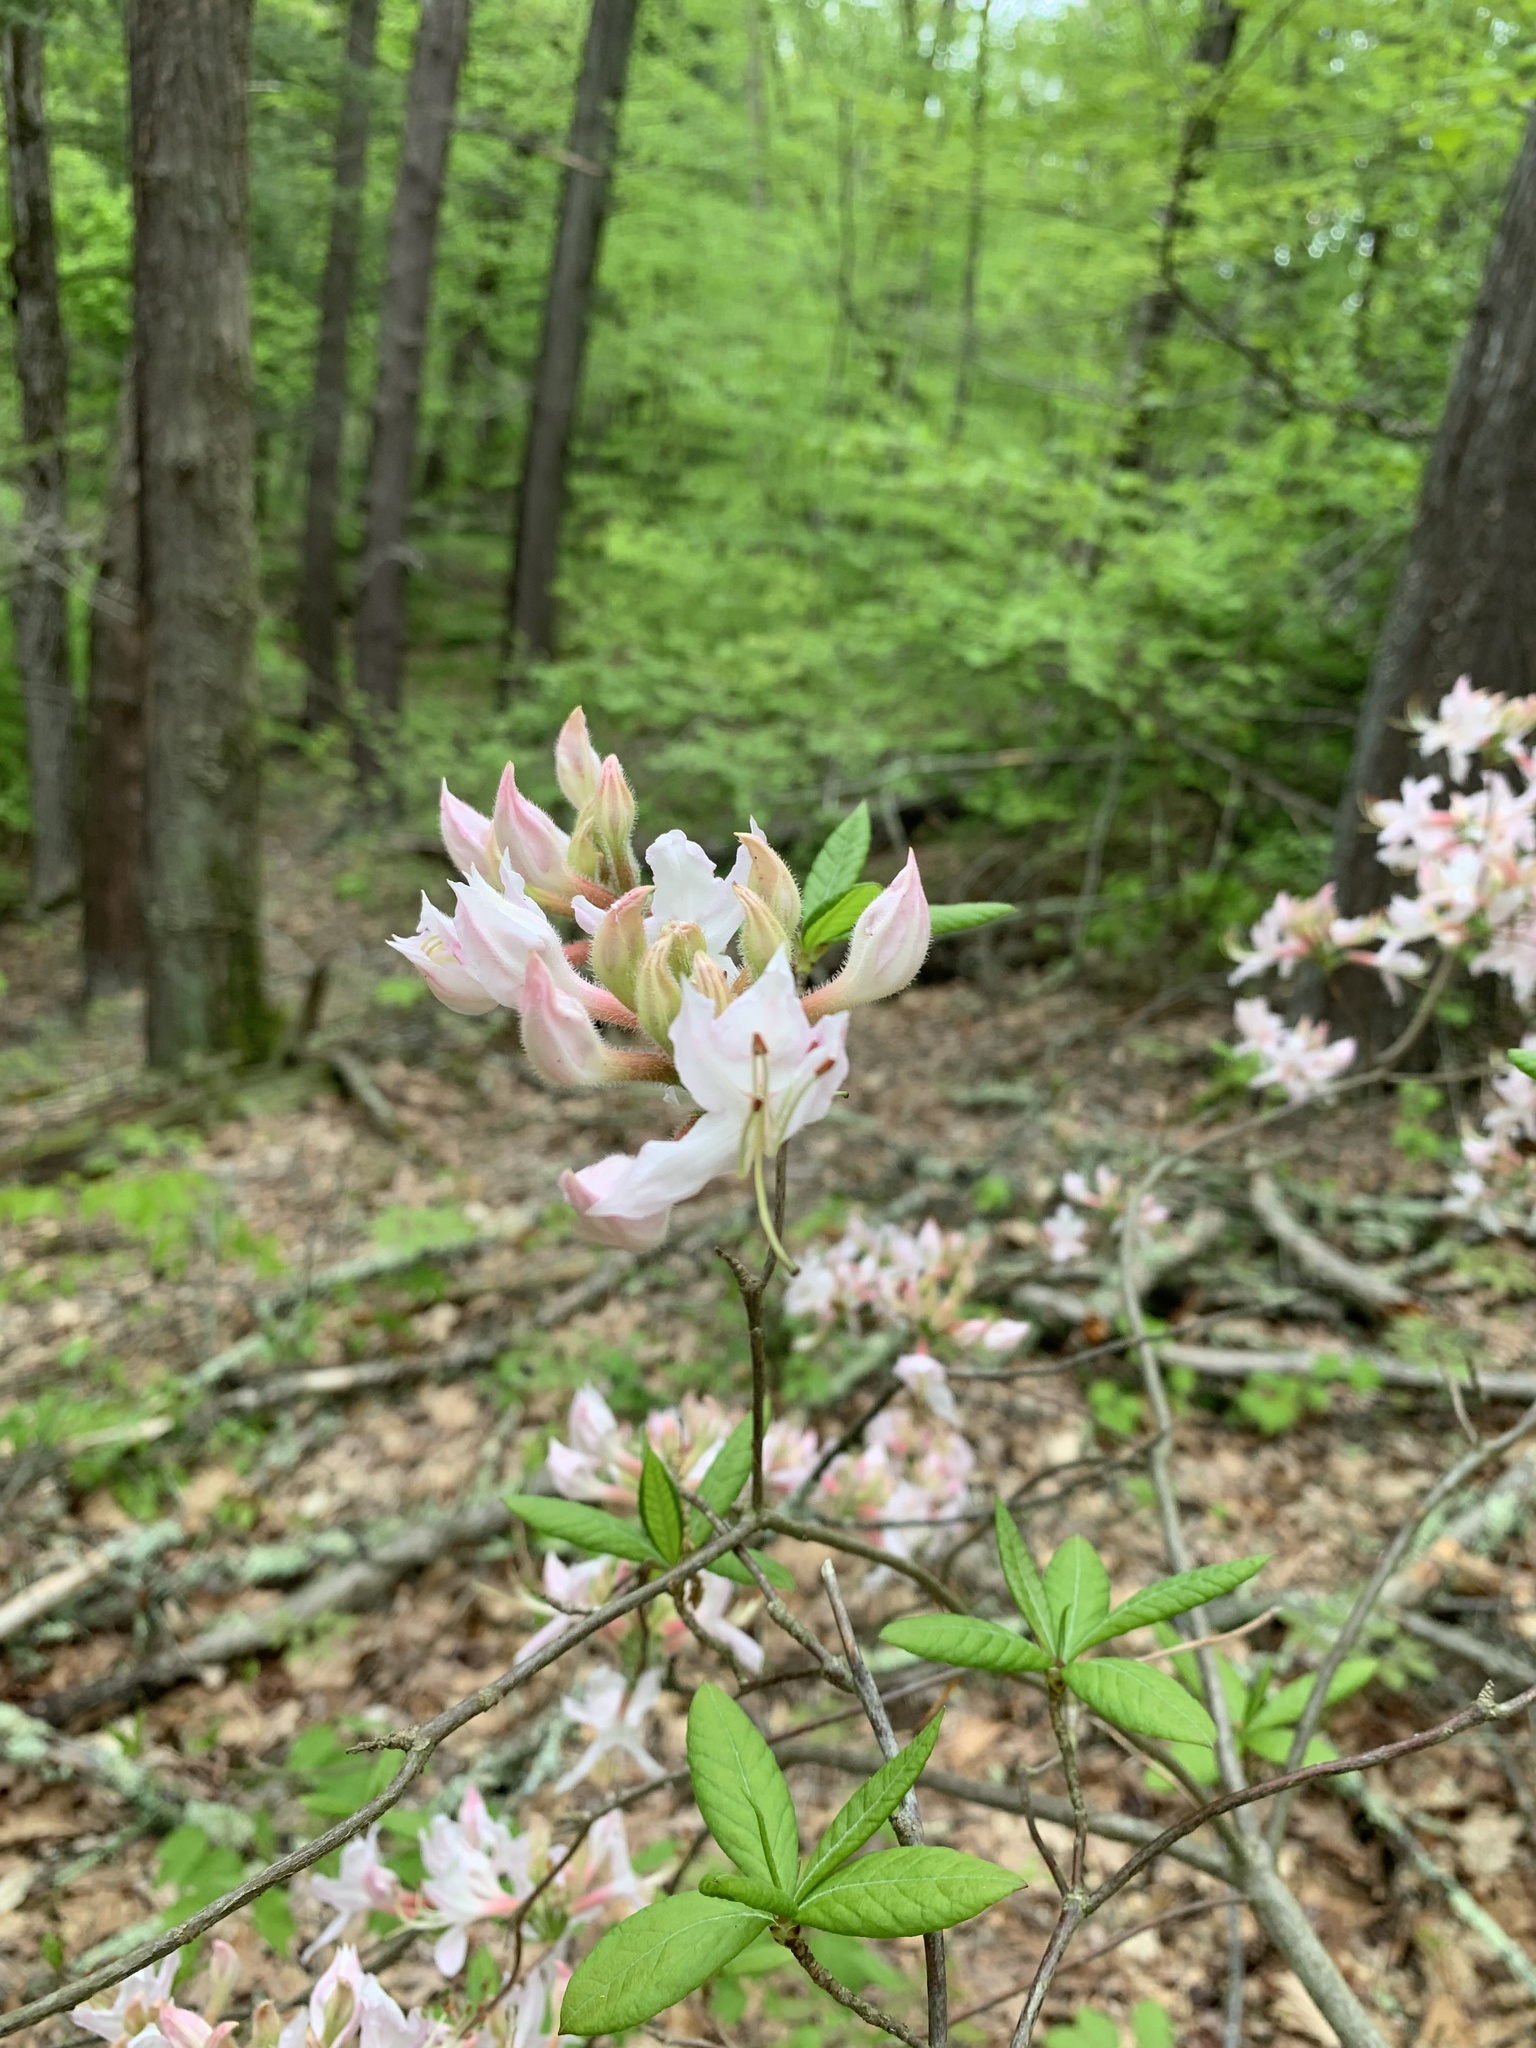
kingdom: Plantae
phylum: Tracheophyta
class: Magnoliopsida
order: Ericales
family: Ericaceae
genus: Rhododendron
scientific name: Rhododendron periclymenoides
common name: Election-pink
